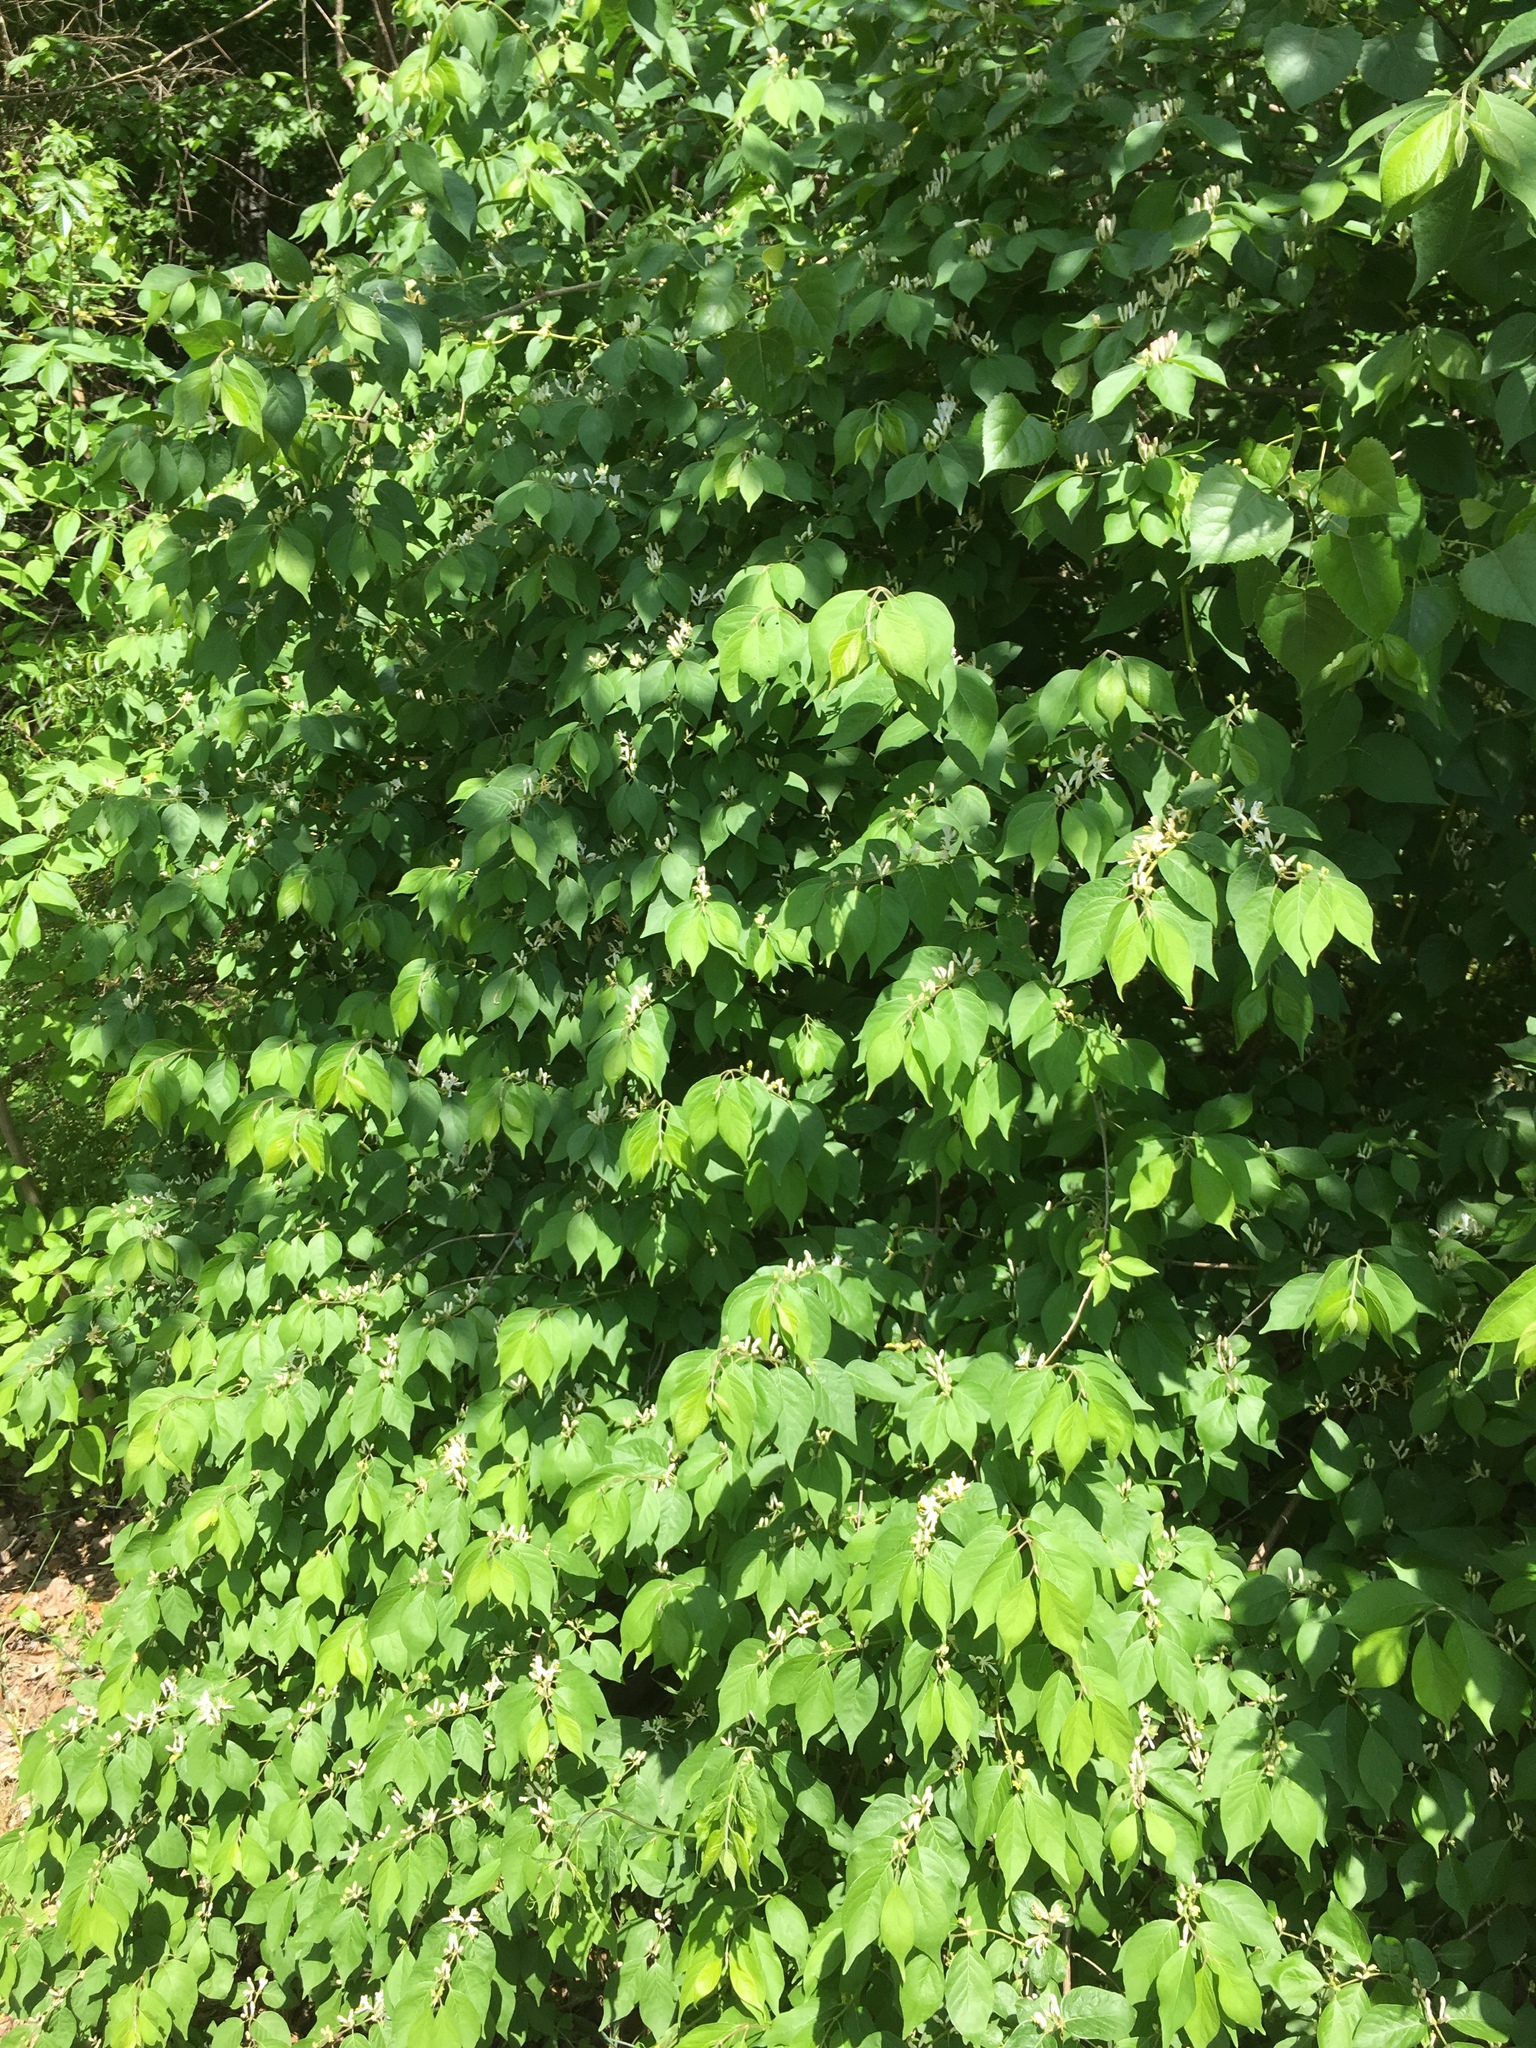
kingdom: Plantae
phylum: Tracheophyta
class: Magnoliopsida
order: Dipsacales
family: Caprifoliaceae
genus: Lonicera
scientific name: Lonicera maackii
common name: Amur honeysuckle
